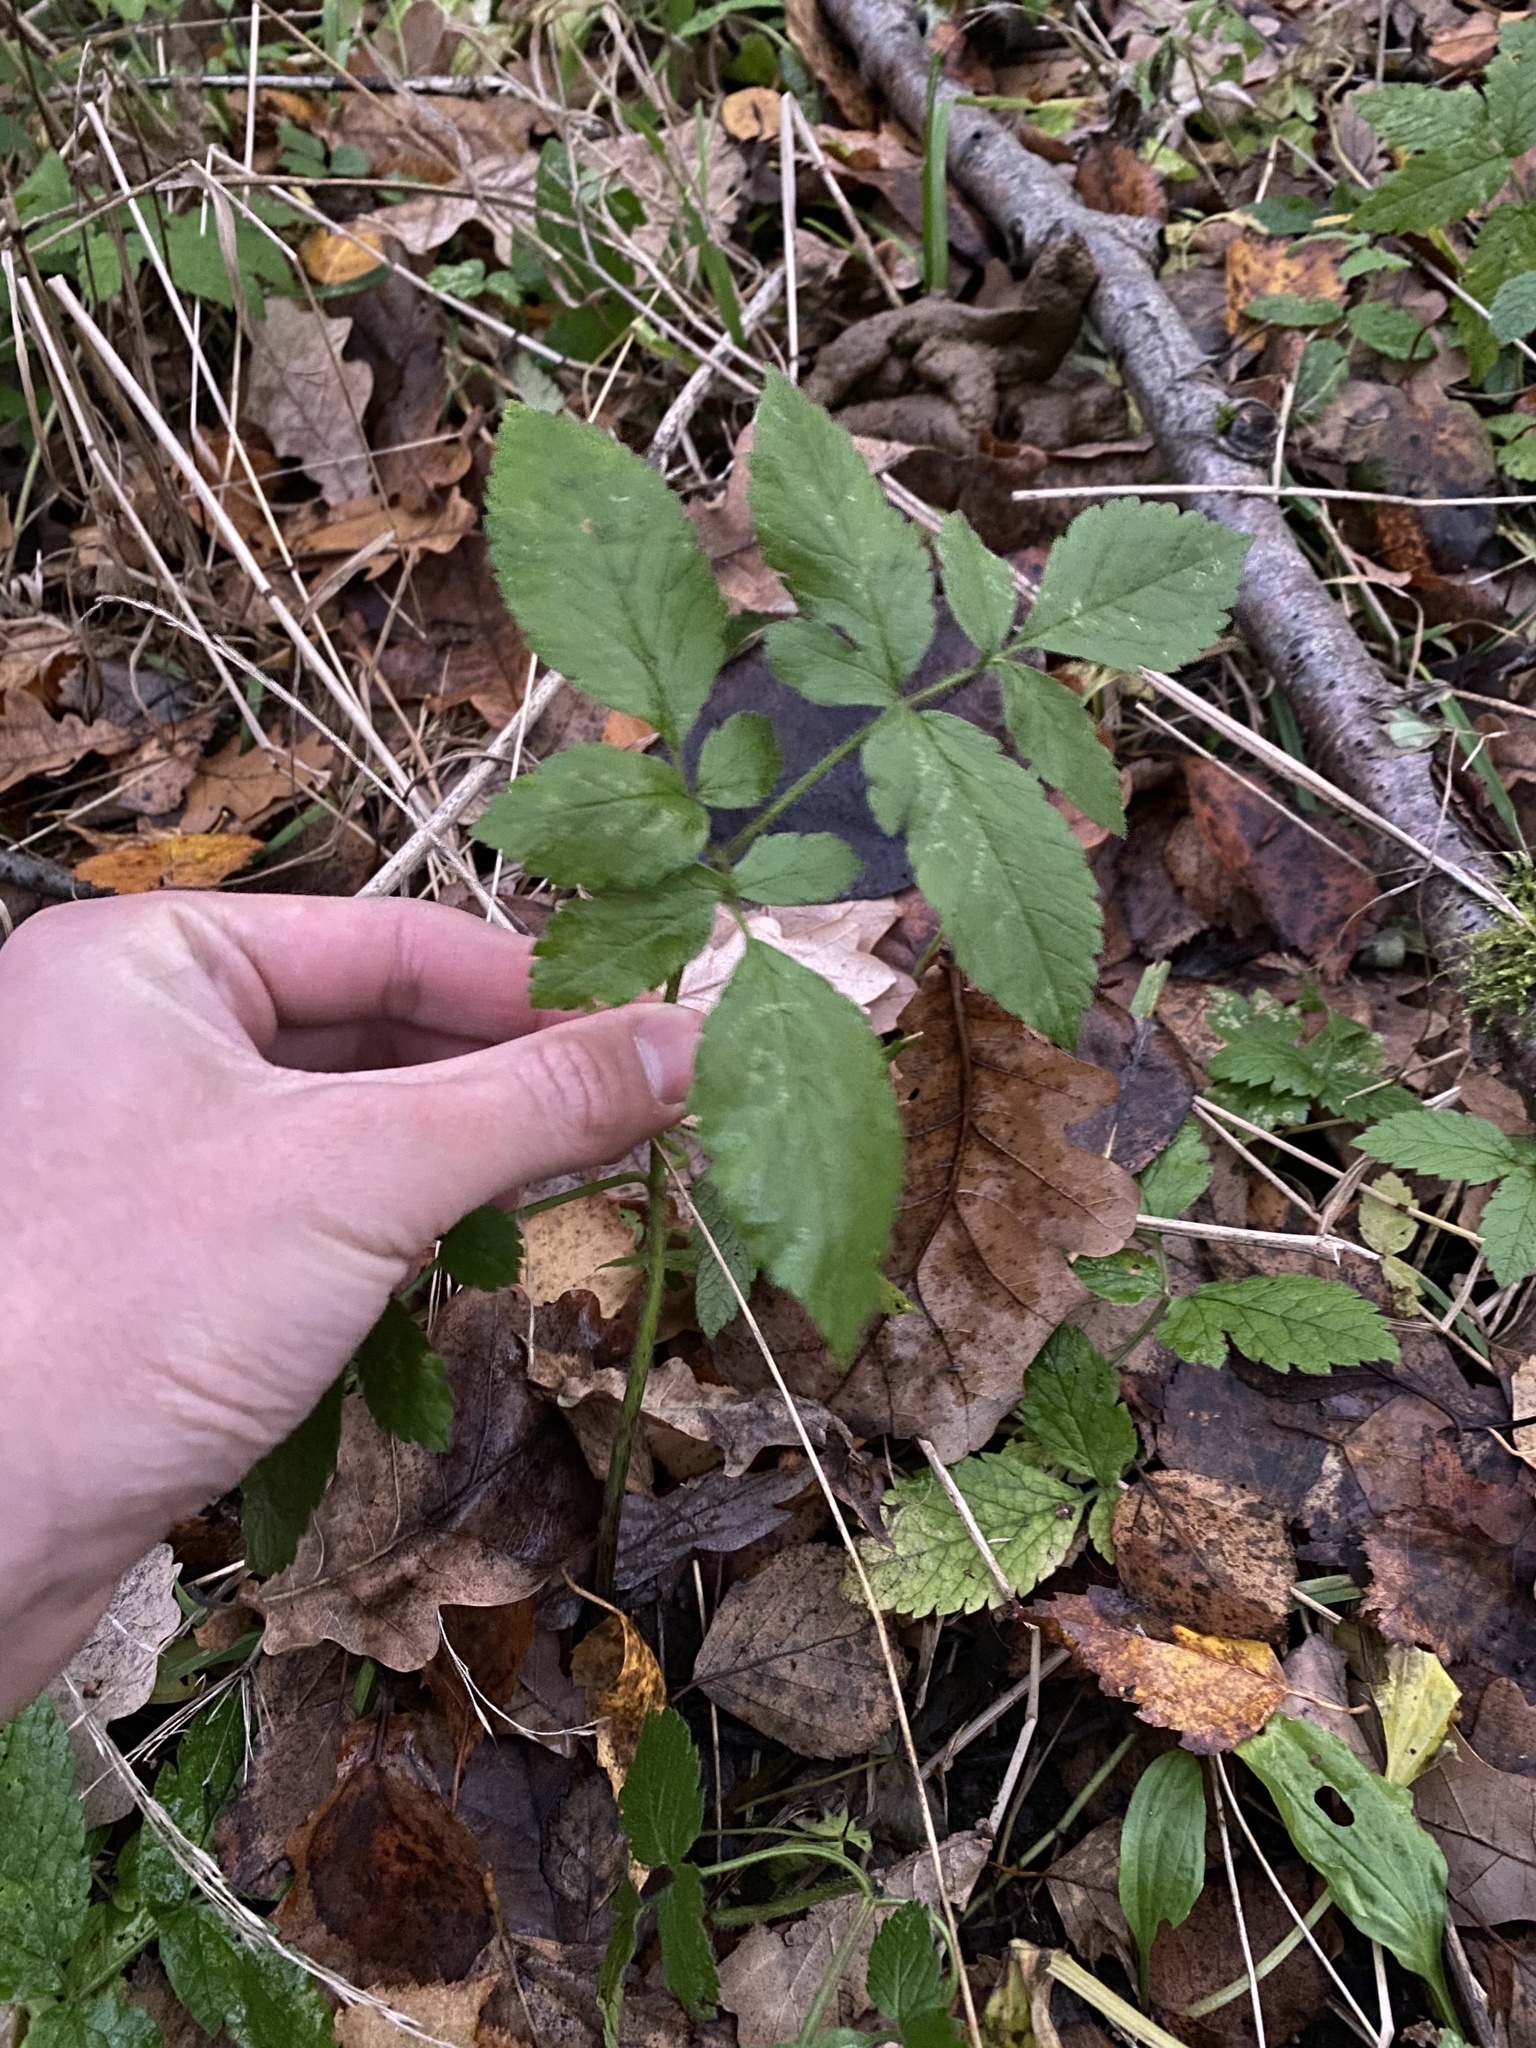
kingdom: Plantae
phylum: Tracheophyta
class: Magnoliopsida
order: Apiales
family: Apiaceae
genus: Aegopodium
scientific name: Aegopodium podagraria
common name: Ground-elder
